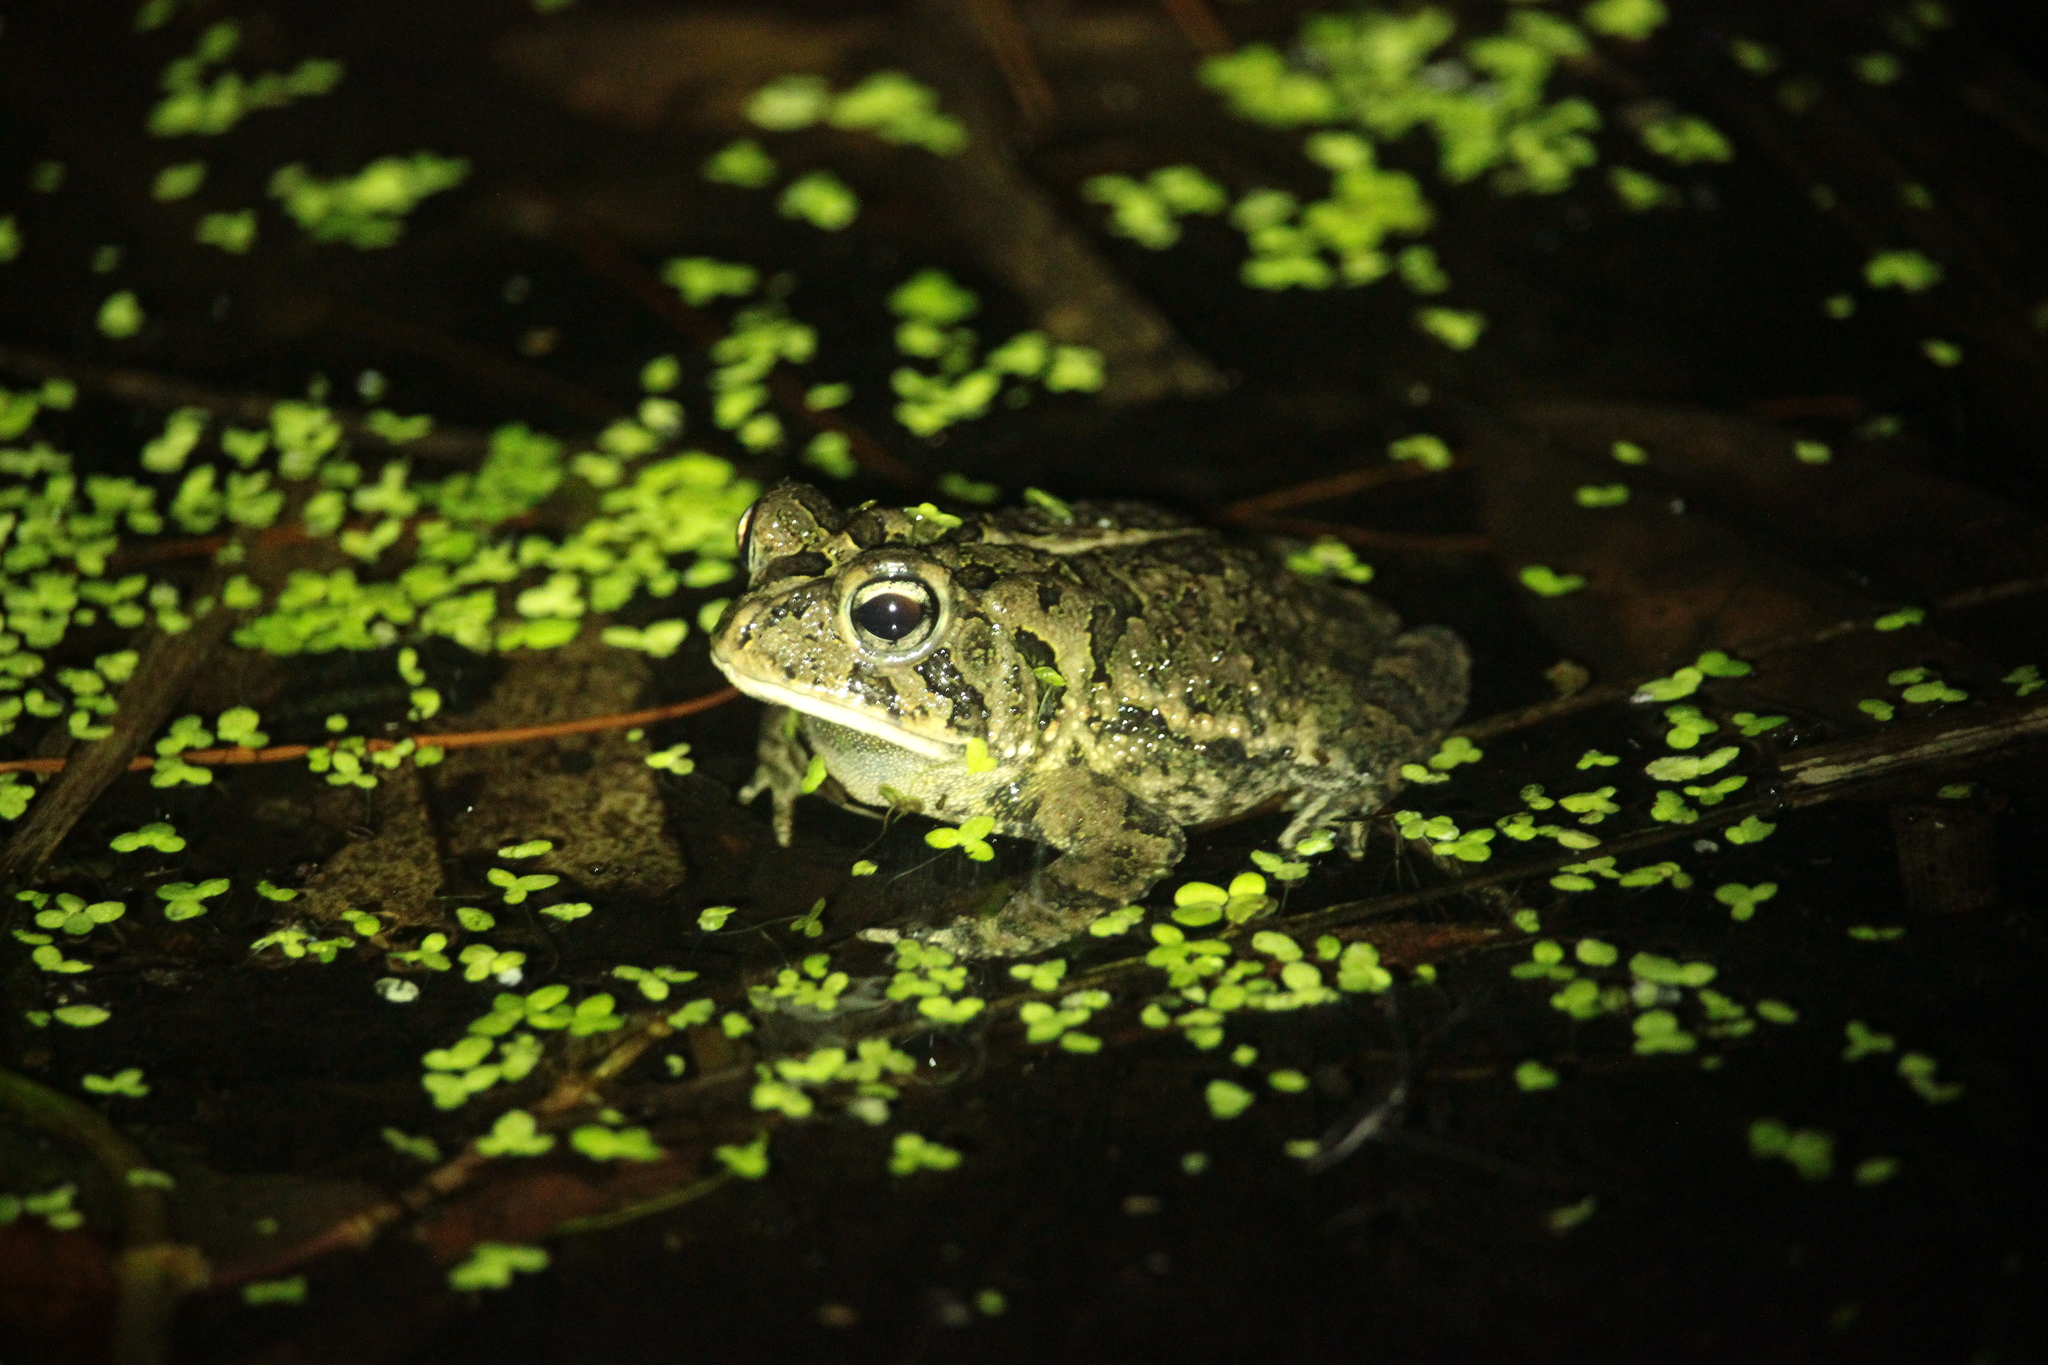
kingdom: Animalia
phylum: Chordata
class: Amphibia
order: Anura
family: Bufonidae
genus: Anaxyrus
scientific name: Anaxyrus terrestris
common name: Southern toad
